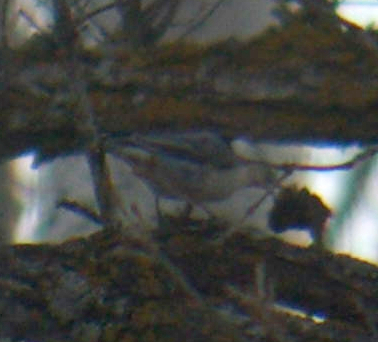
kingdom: Animalia
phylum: Chordata
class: Aves
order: Passeriformes
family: Sittidae
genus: Sitta
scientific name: Sitta carolinensis
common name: White-breasted nuthatch
